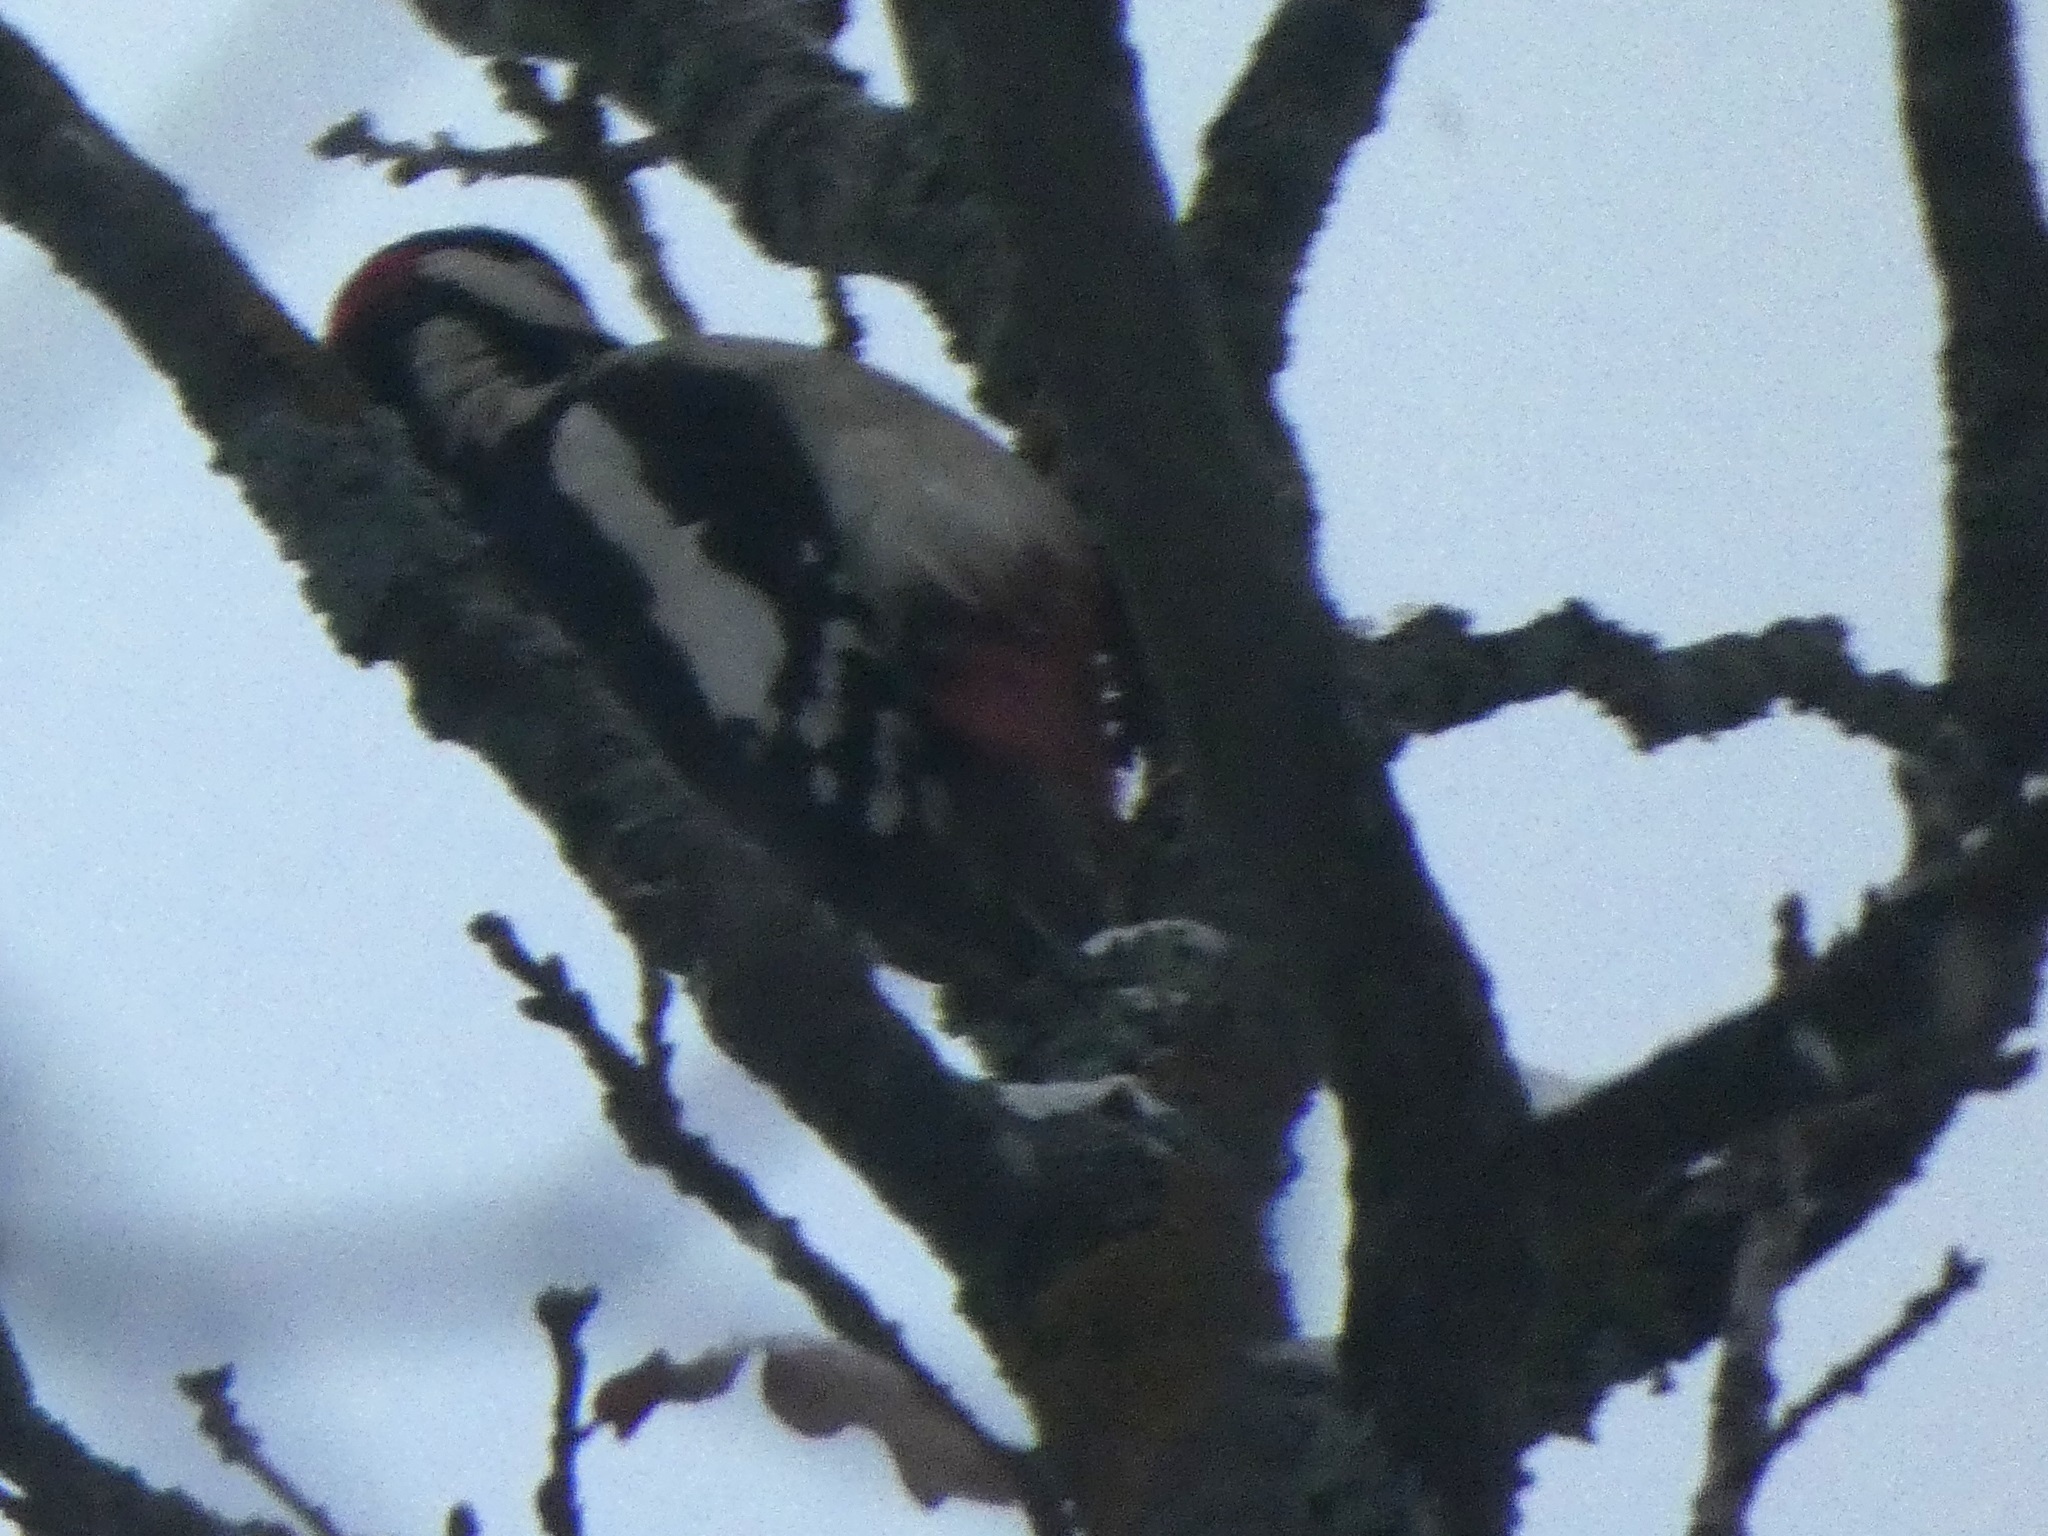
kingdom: Animalia
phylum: Chordata
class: Aves
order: Piciformes
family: Picidae
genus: Dendrocopos
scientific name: Dendrocopos major
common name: Great spotted woodpecker
